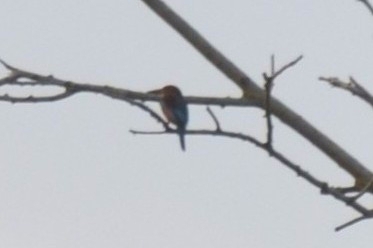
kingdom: Animalia
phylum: Chordata
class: Aves
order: Coraciiformes
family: Alcedinidae
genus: Halcyon
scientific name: Halcyon smyrnensis
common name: White-throated kingfisher
